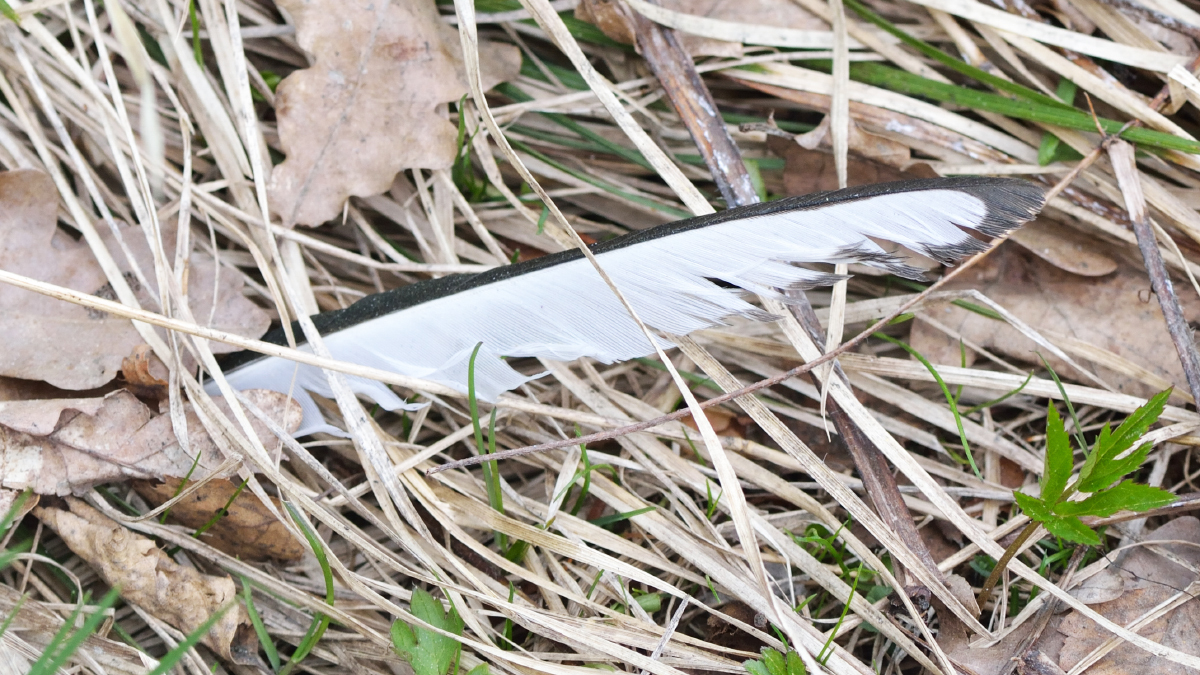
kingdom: Animalia
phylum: Chordata
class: Aves
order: Passeriformes
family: Corvidae
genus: Pica
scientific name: Pica pica
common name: Eurasian magpie
